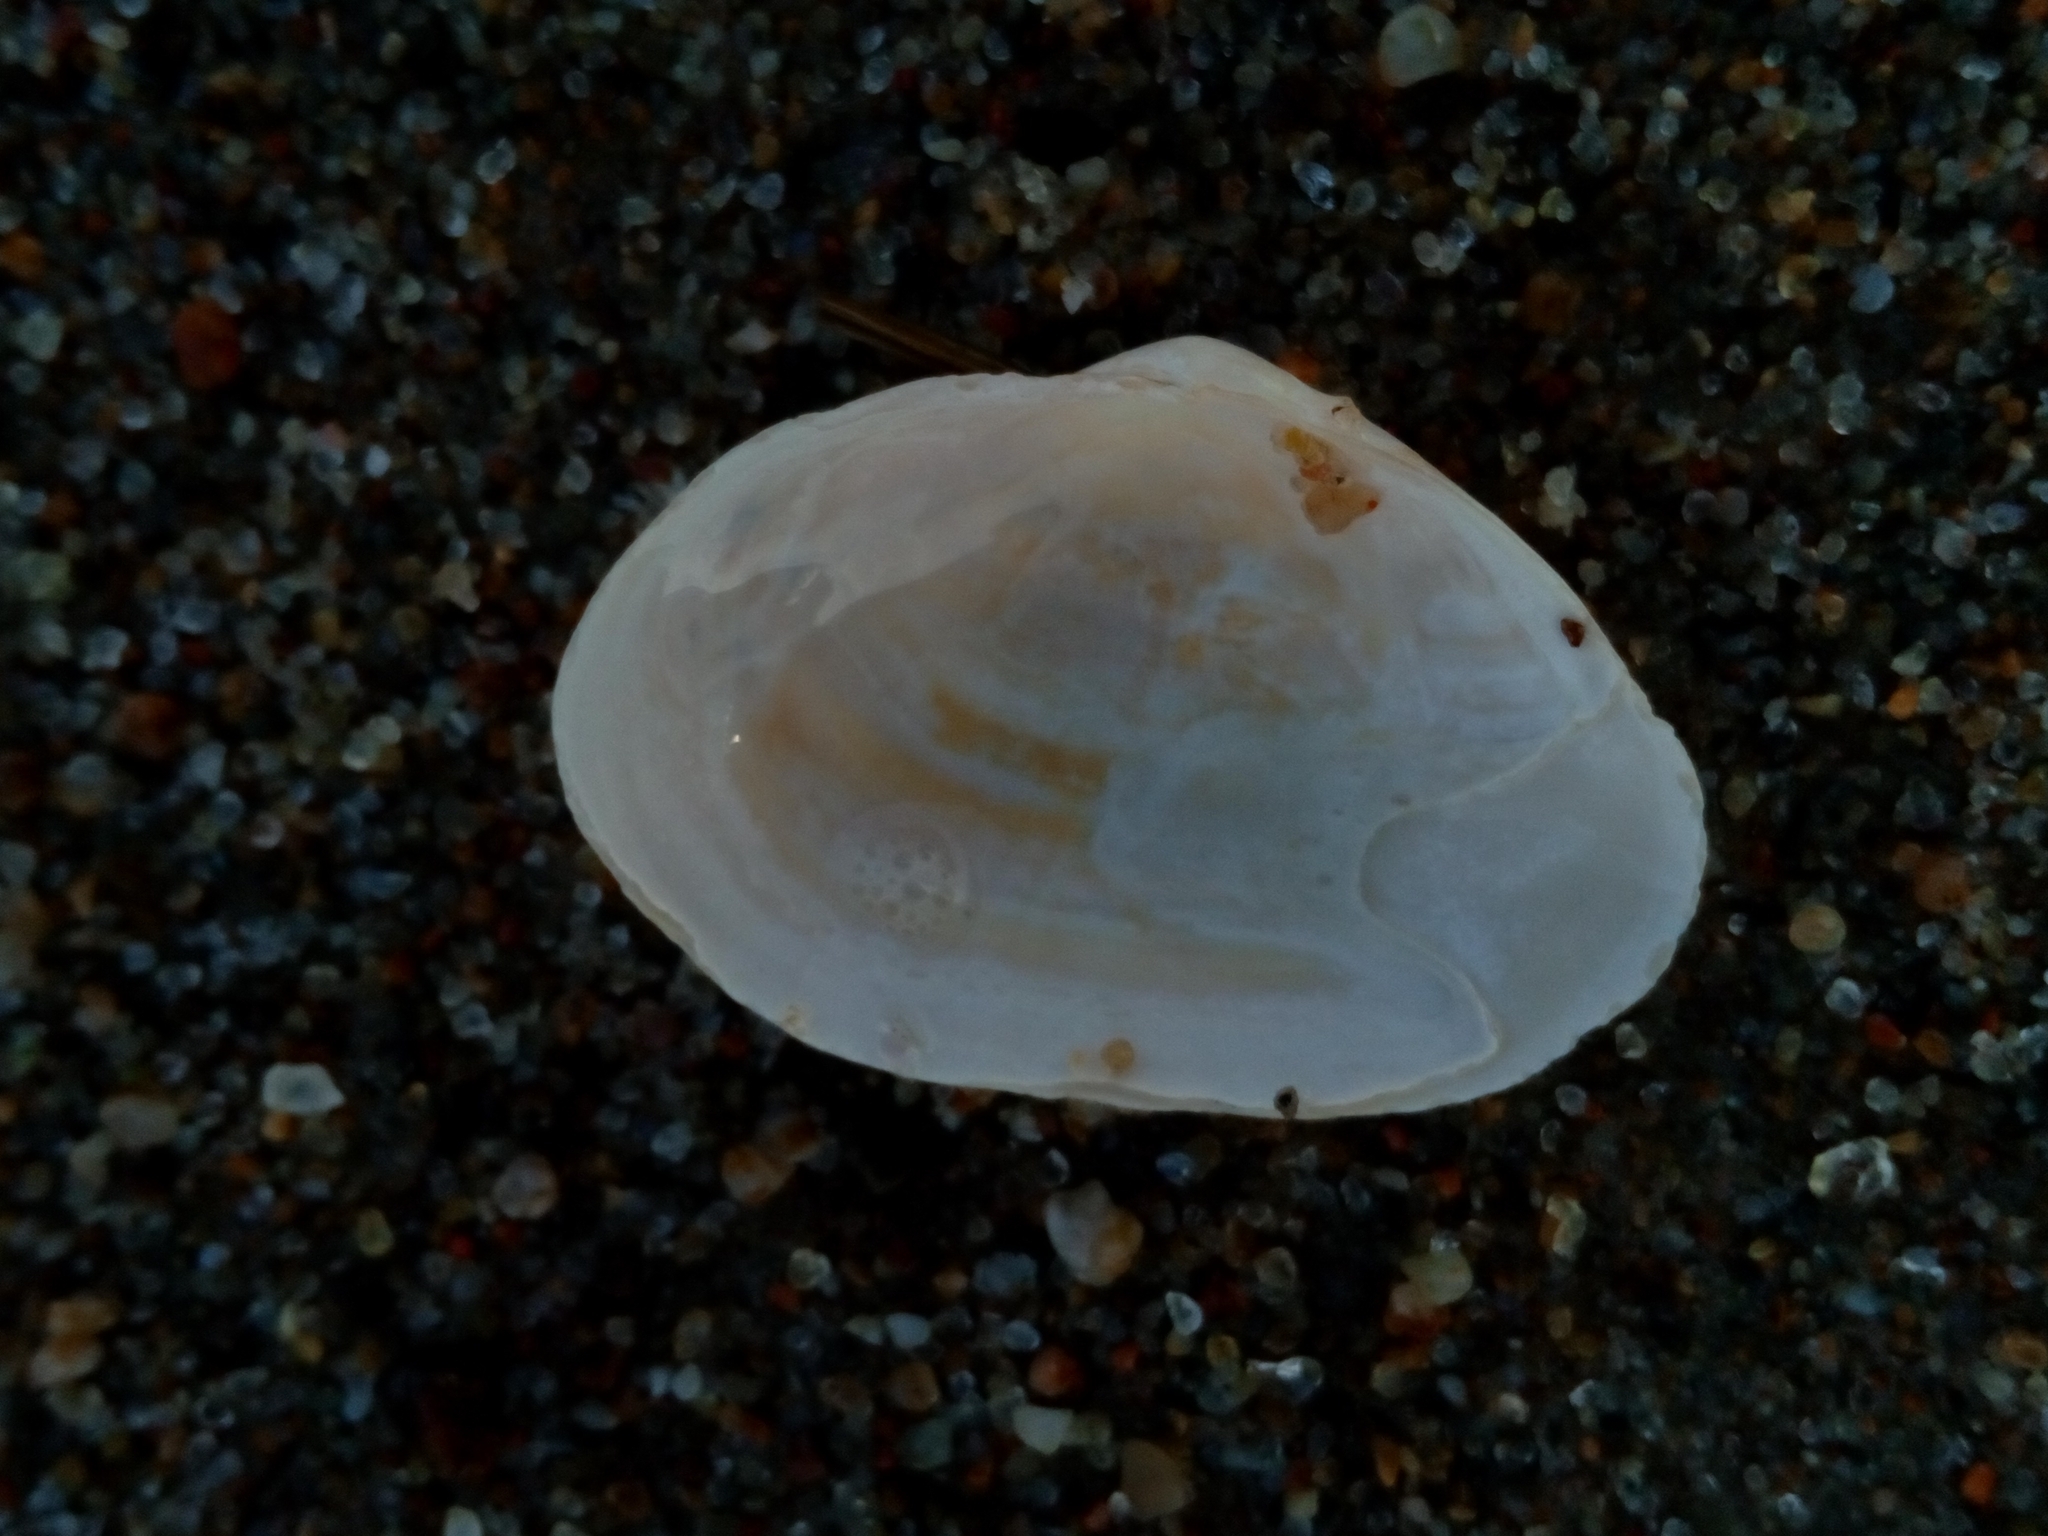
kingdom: Animalia
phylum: Mollusca
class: Bivalvia
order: Myida
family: Myidae
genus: Mya
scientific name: Mya arenaria
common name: Soft-shelled clam
